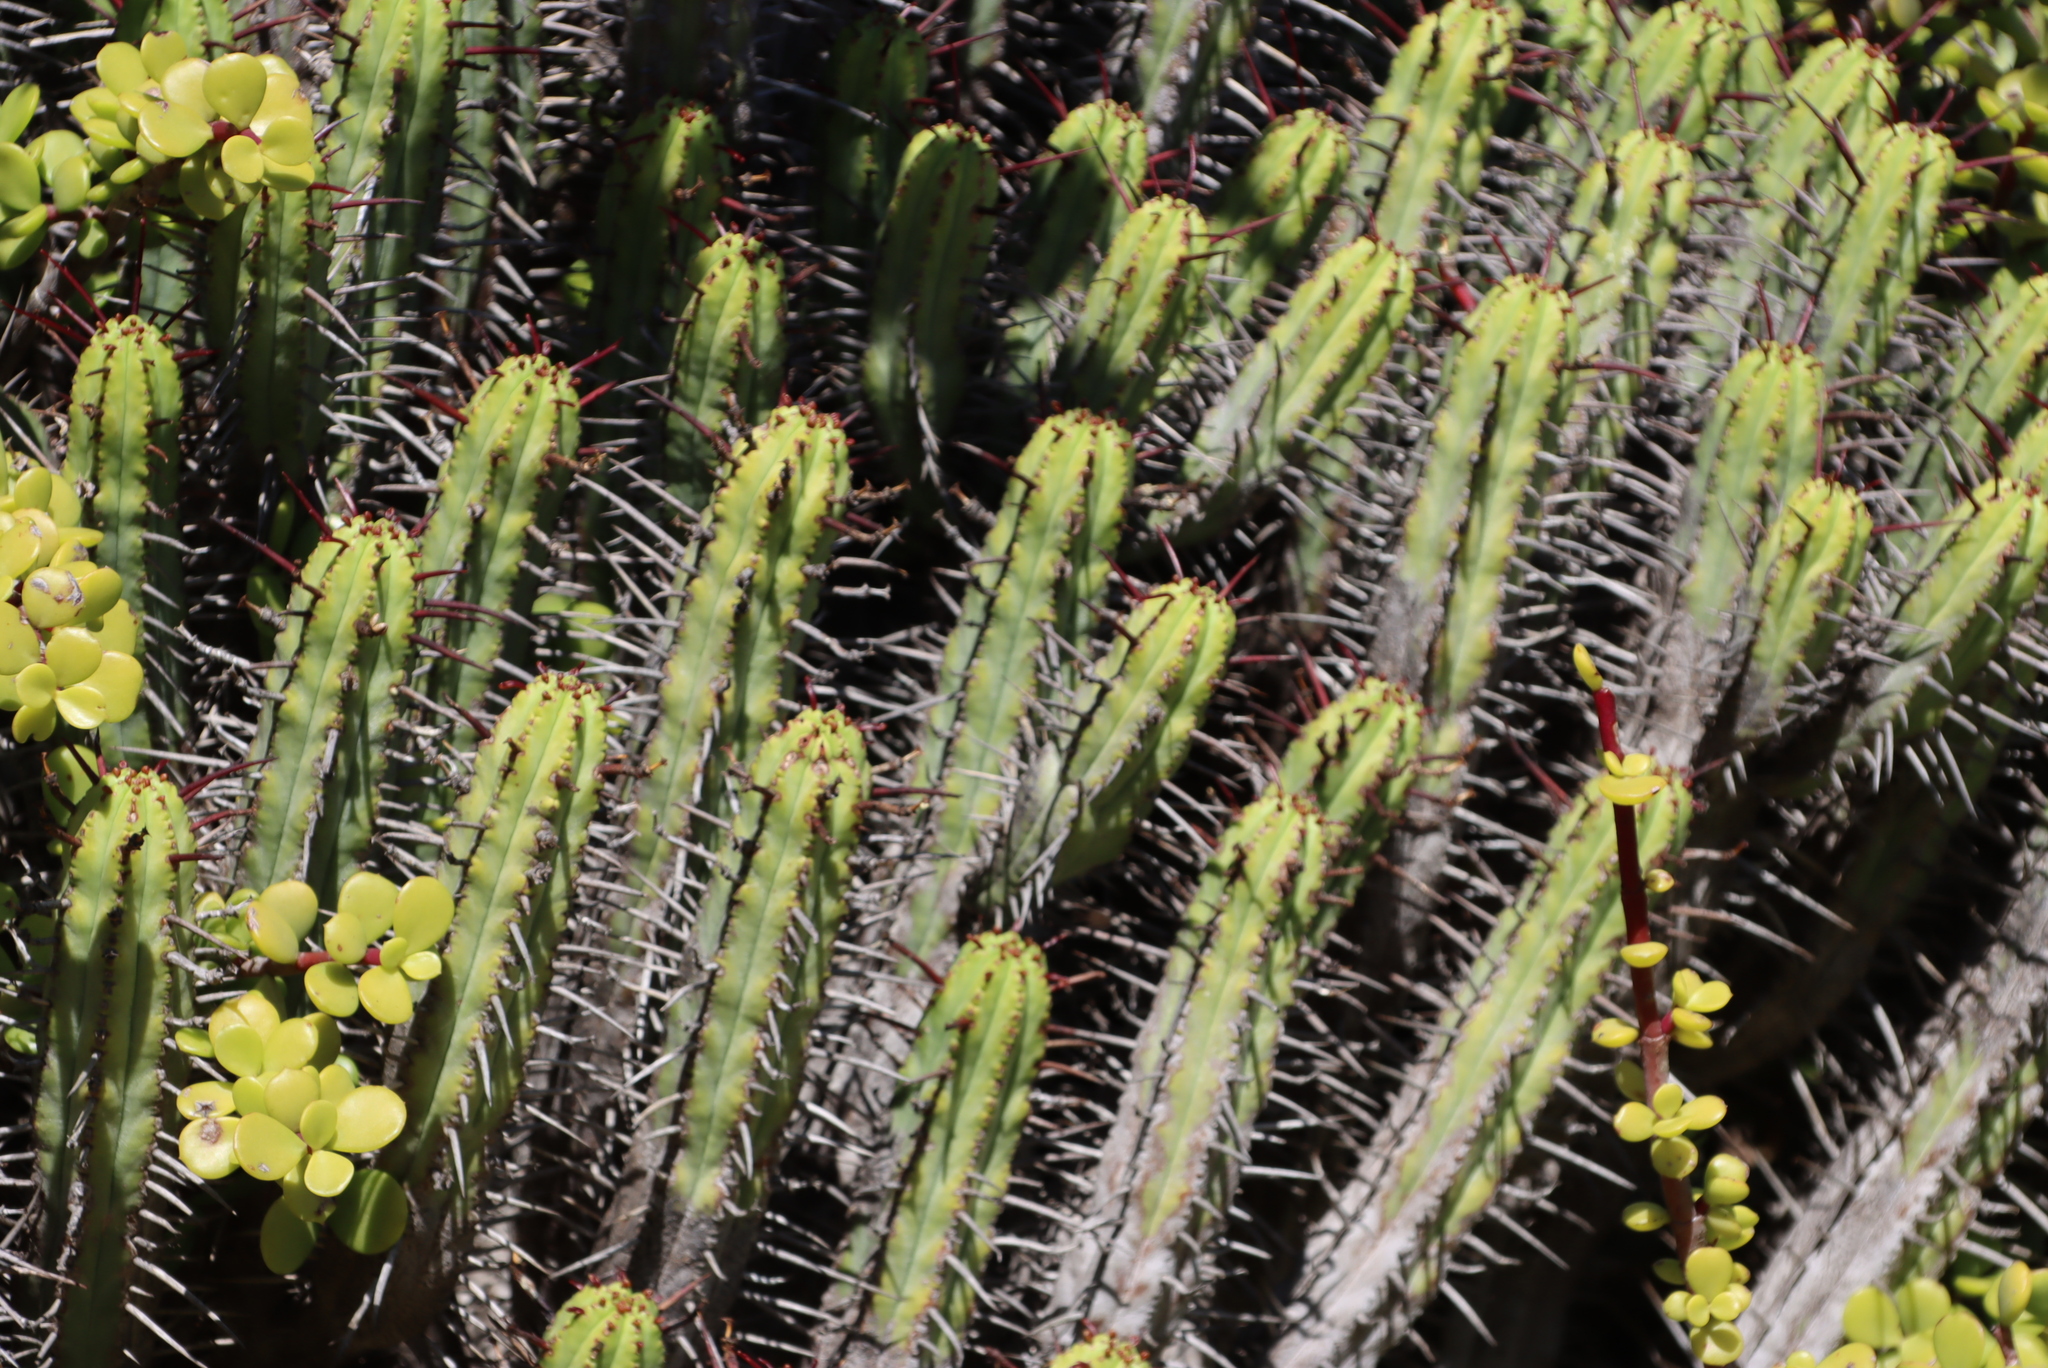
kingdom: Plantae
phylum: Tracheophyta
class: Magnoliopsida
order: Malpighiales
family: Euphorbiaceae
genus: Euphorbia
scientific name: Euphorbia heptagona
